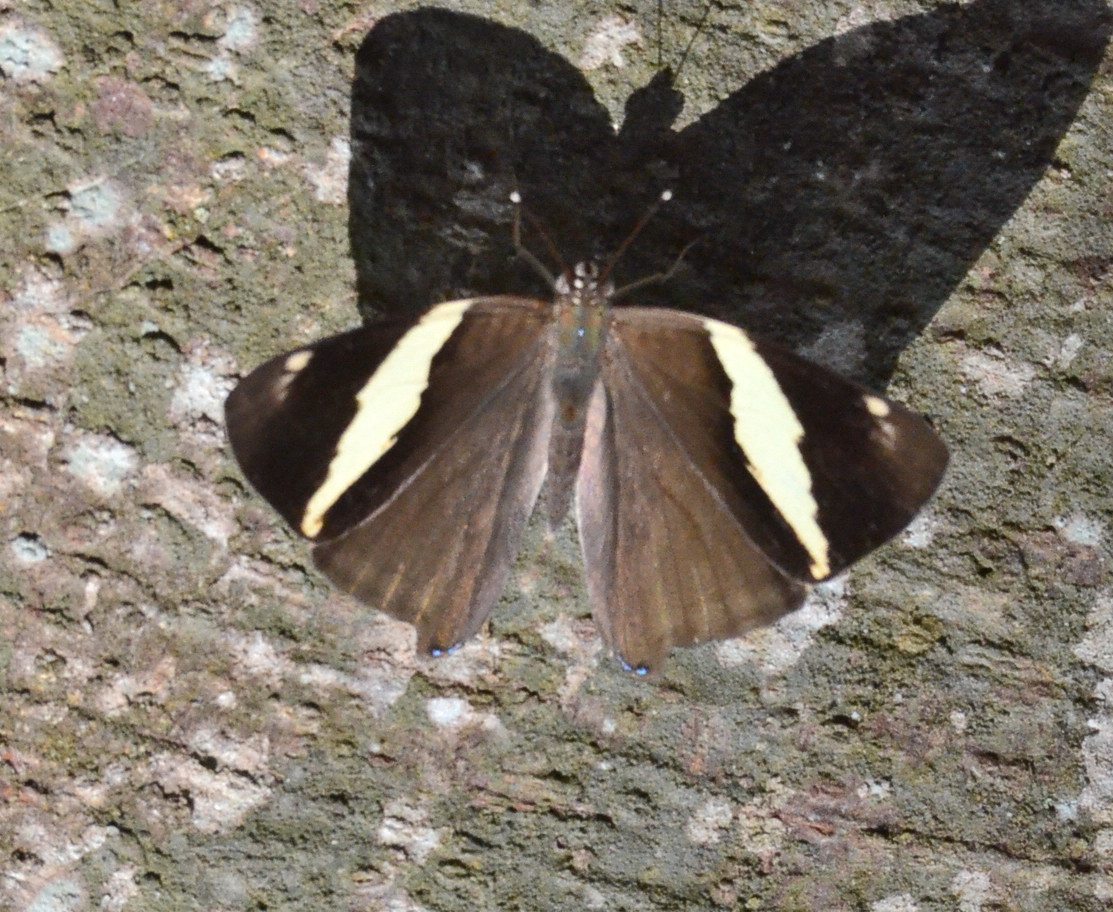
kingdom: Animalia
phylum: Arthropoda
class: Insecta
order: Lepidoptera
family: Nymphalidae
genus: Colobura
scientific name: Colobura dirce
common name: Dirce beauty
